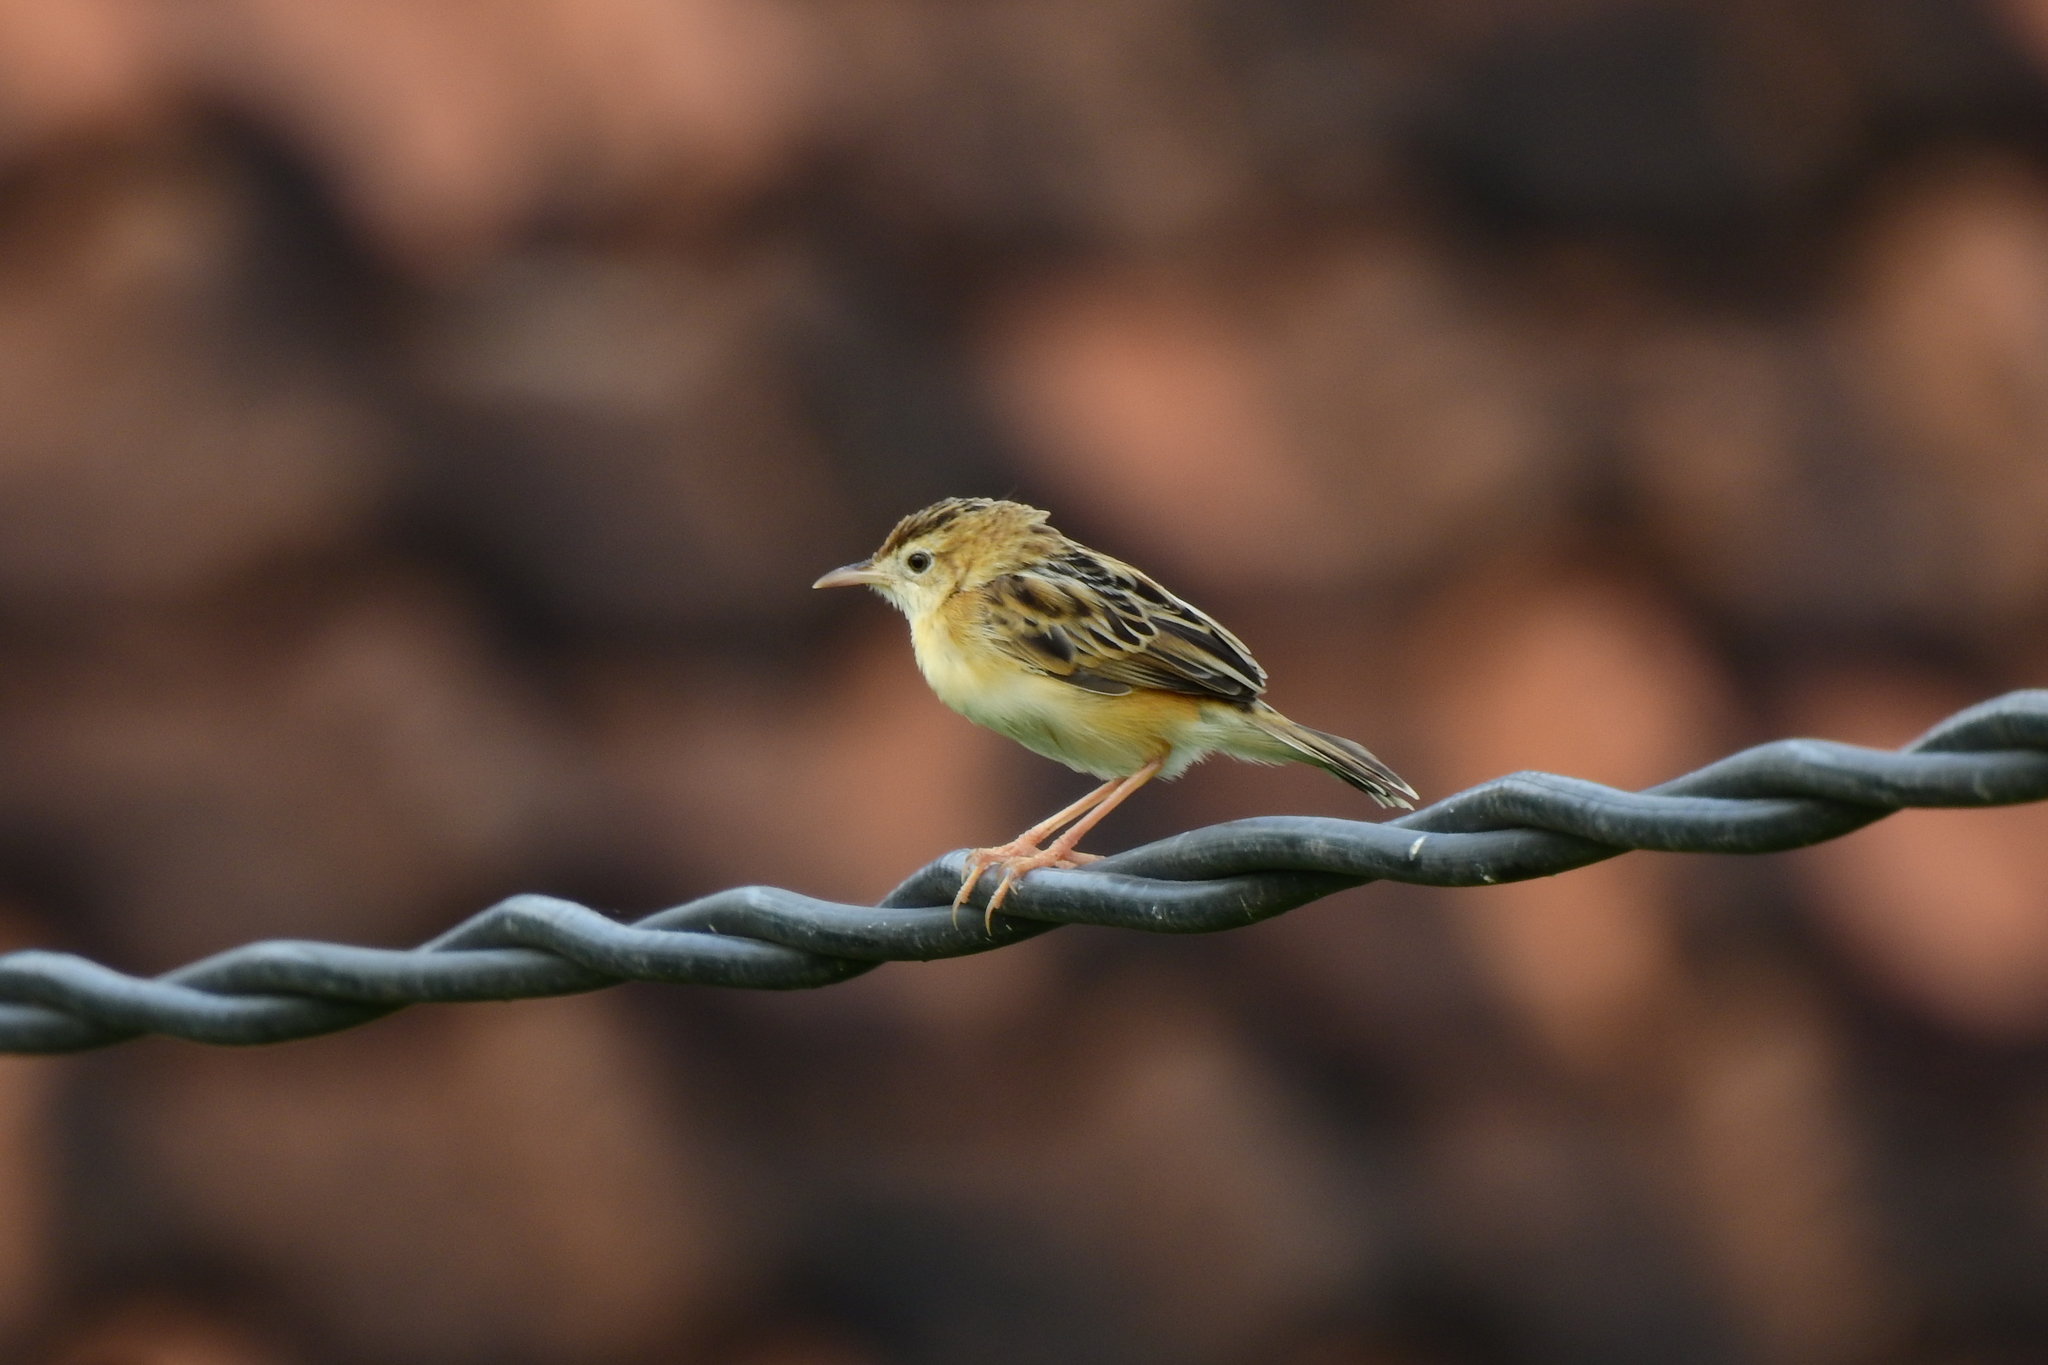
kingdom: Animalia
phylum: Chordata
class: Aves
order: Passeriformes
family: Cisticolidae
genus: Cisticola
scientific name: Cisticola juncidis
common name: Zitting cisticola
